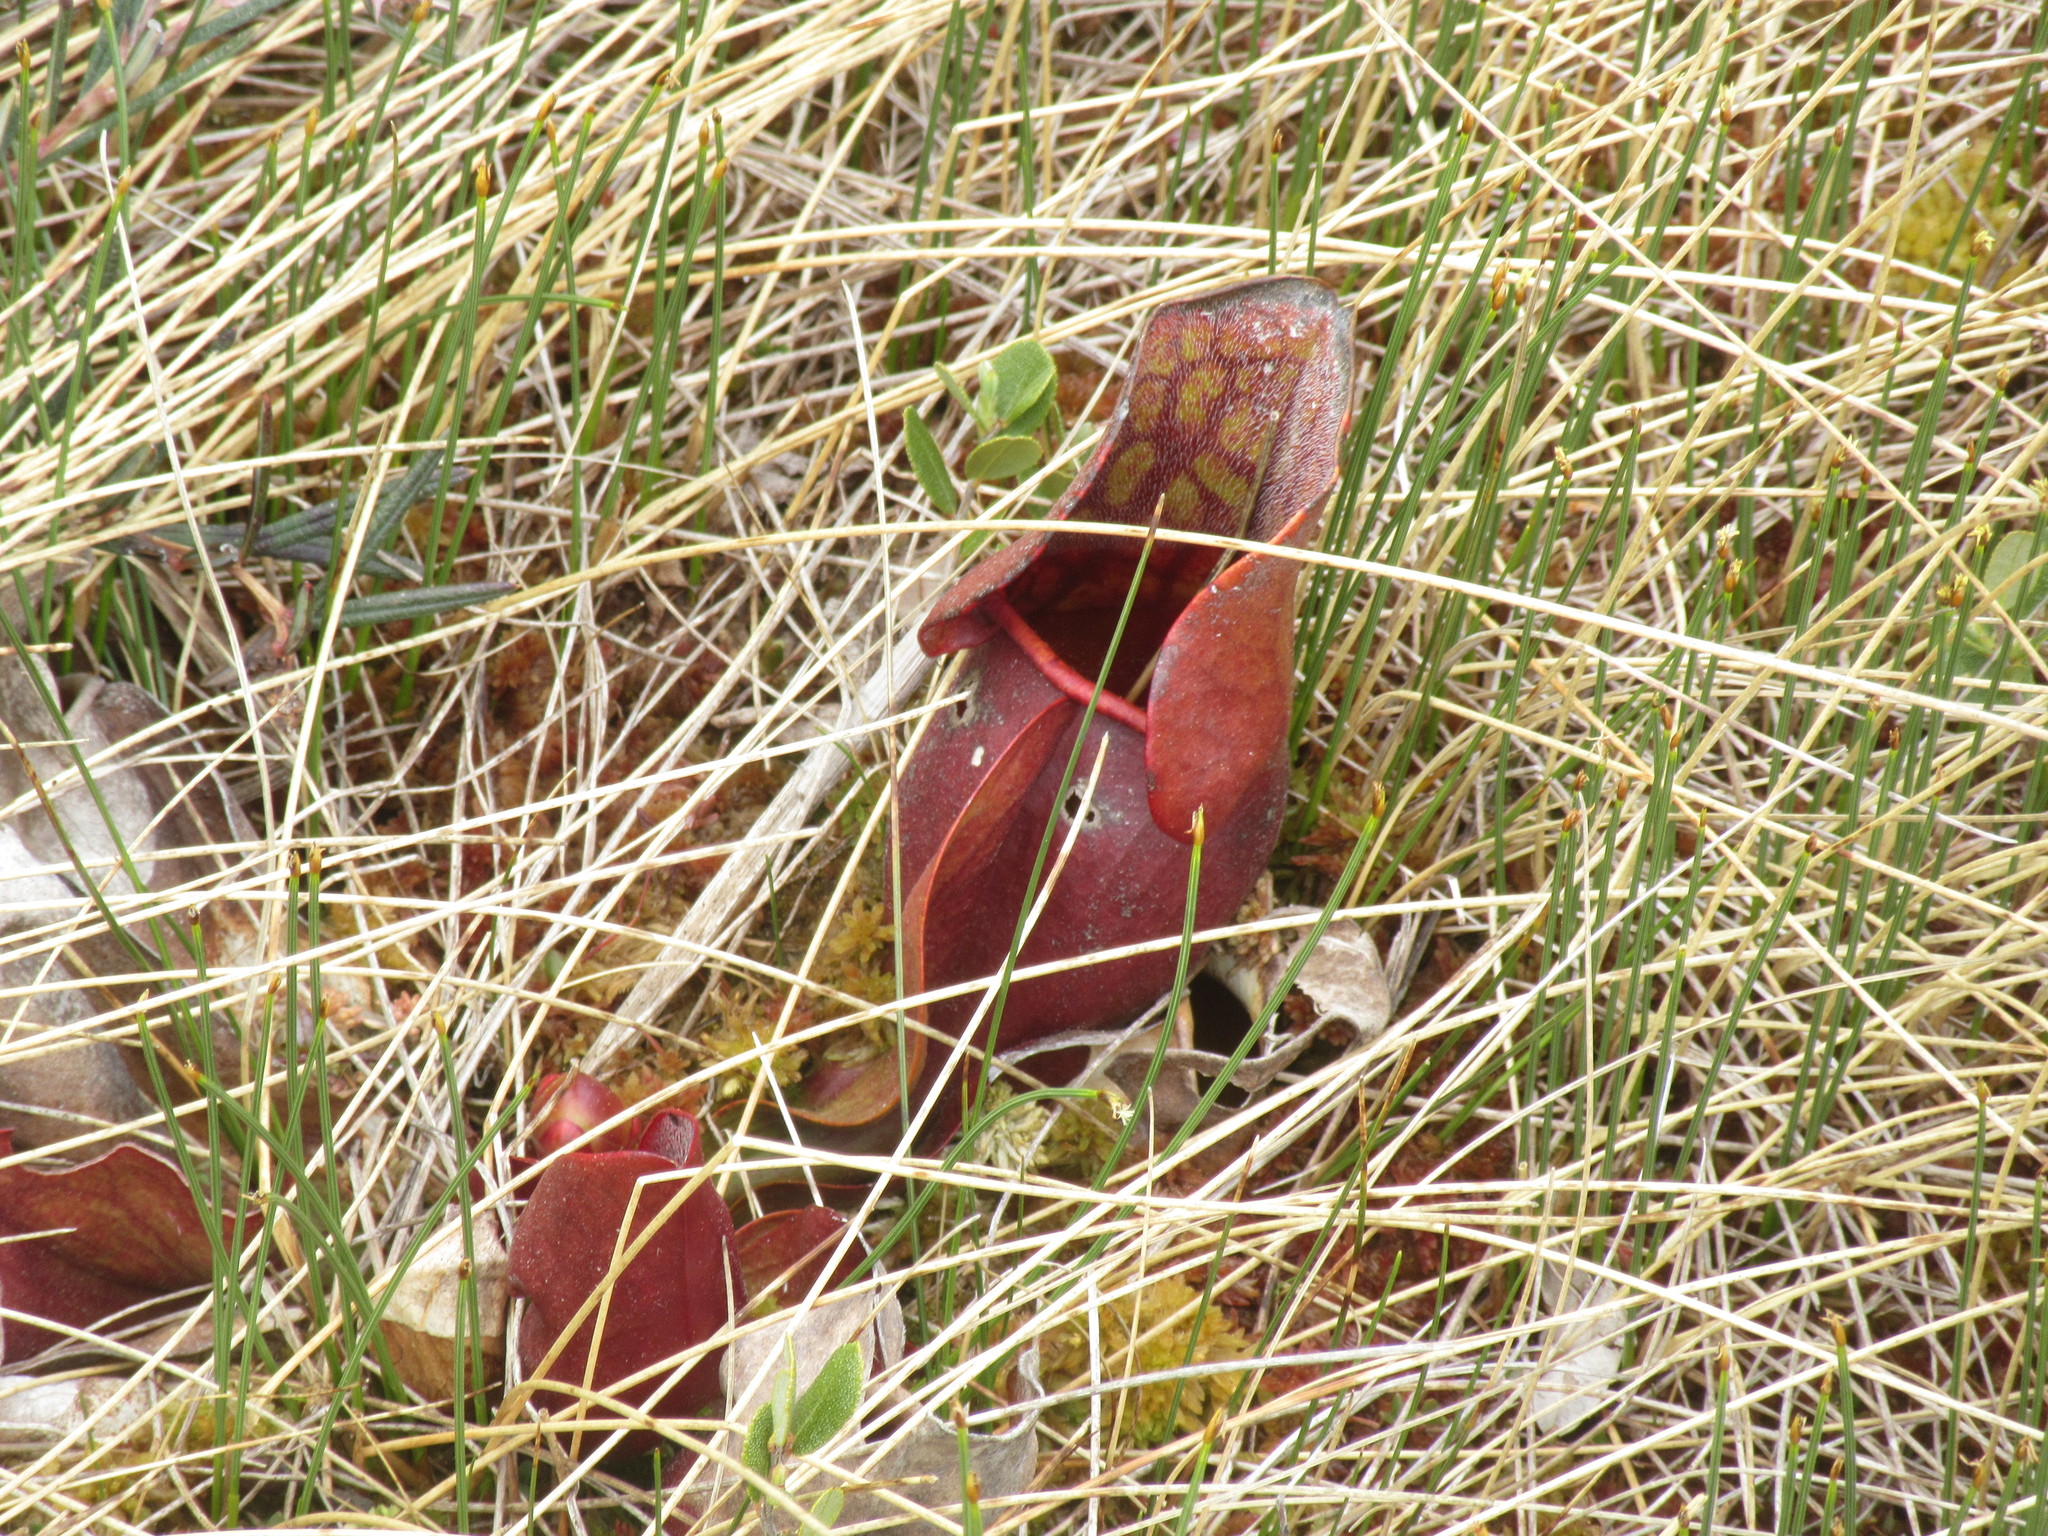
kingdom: Plantae
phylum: Tracheophyta
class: Magnoliopsida
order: Ericales
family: Sarraceniaceae
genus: Sarracenia
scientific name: Sarracenia purpurea
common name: Pitcherplant
